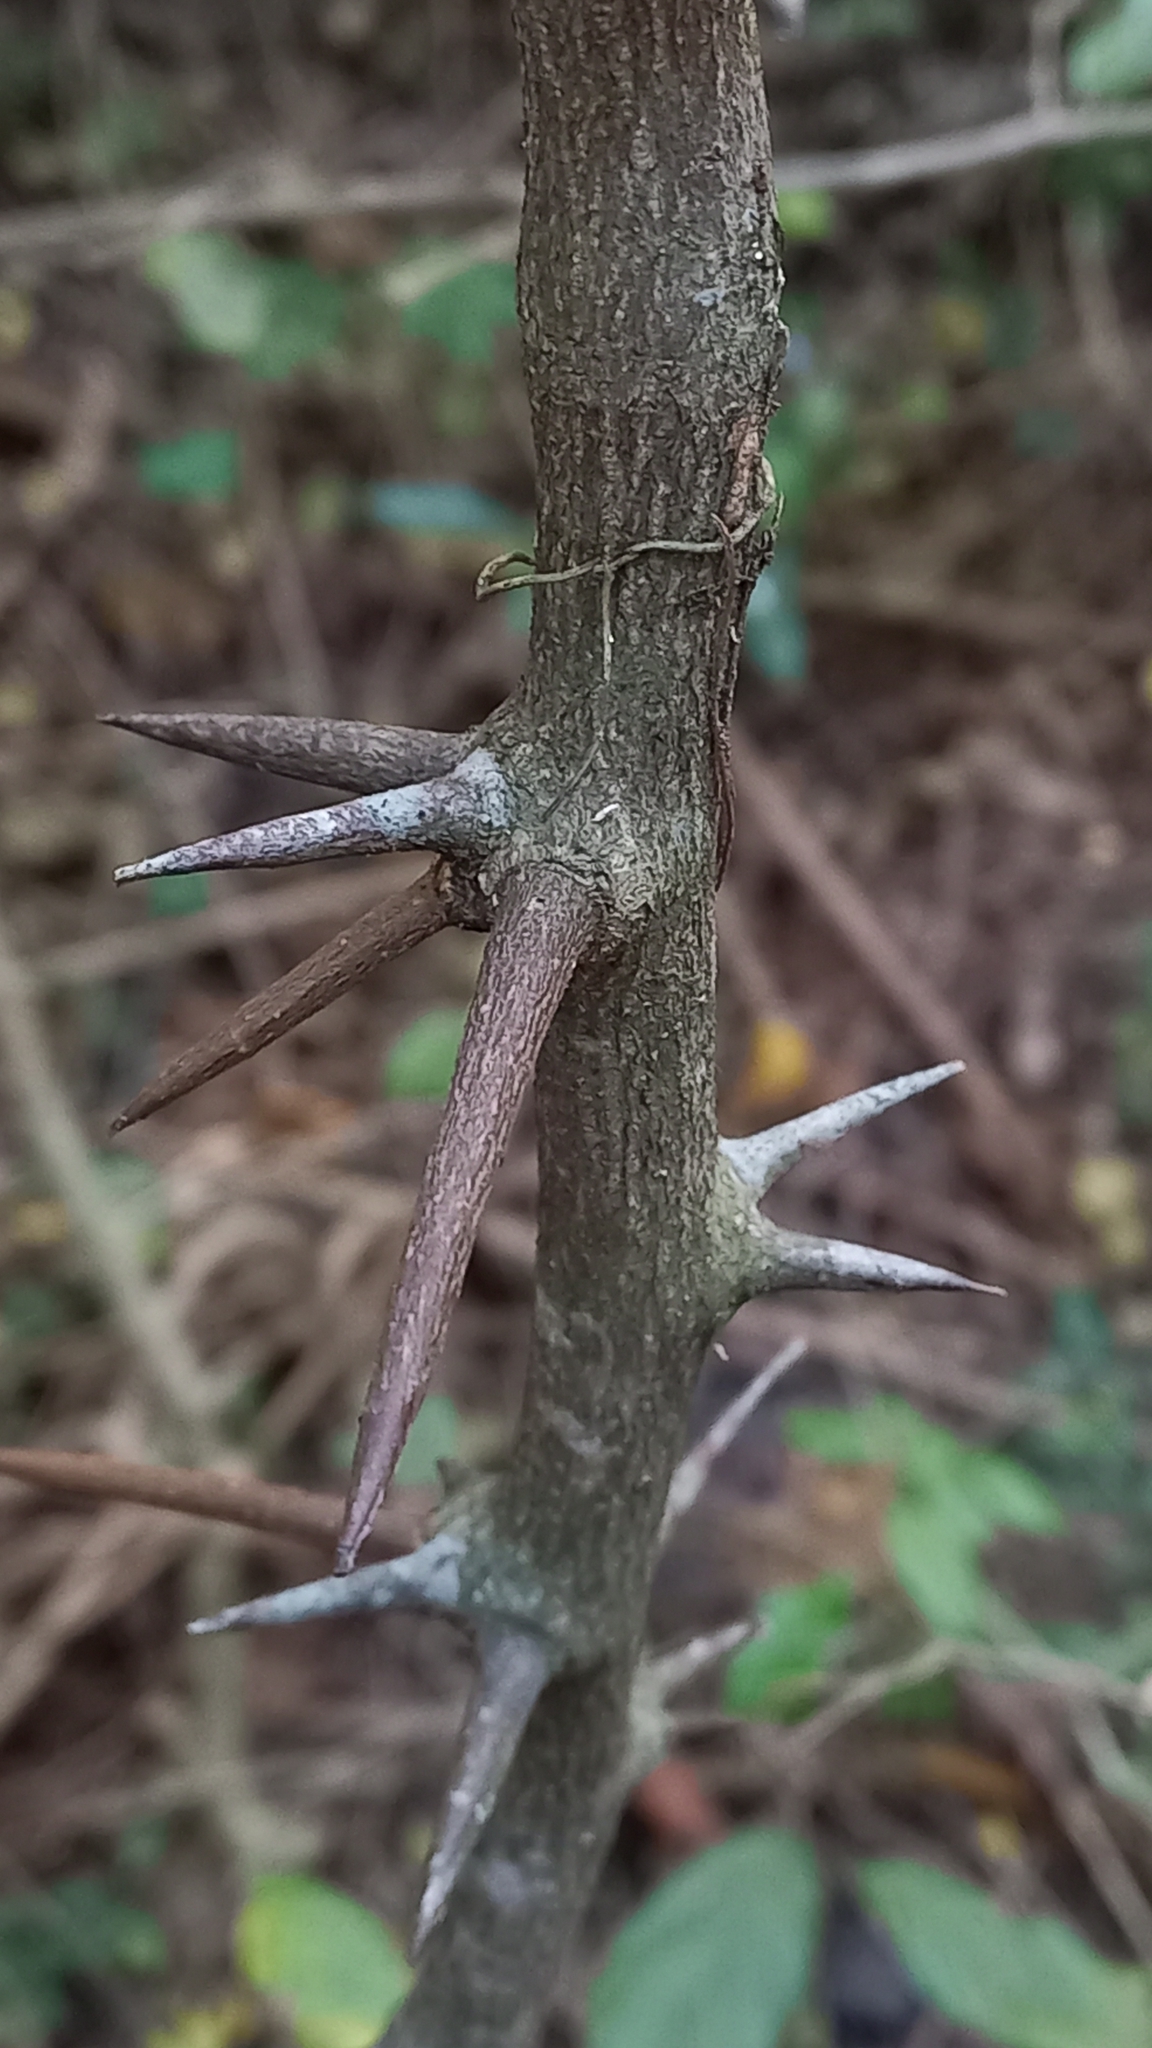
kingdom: Plantae
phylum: Tracheophyta
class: Magnoliopsida
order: Fabales
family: Fabaceae
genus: Dalbergia
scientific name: Dalbergia armata
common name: Hluhluwe climber
